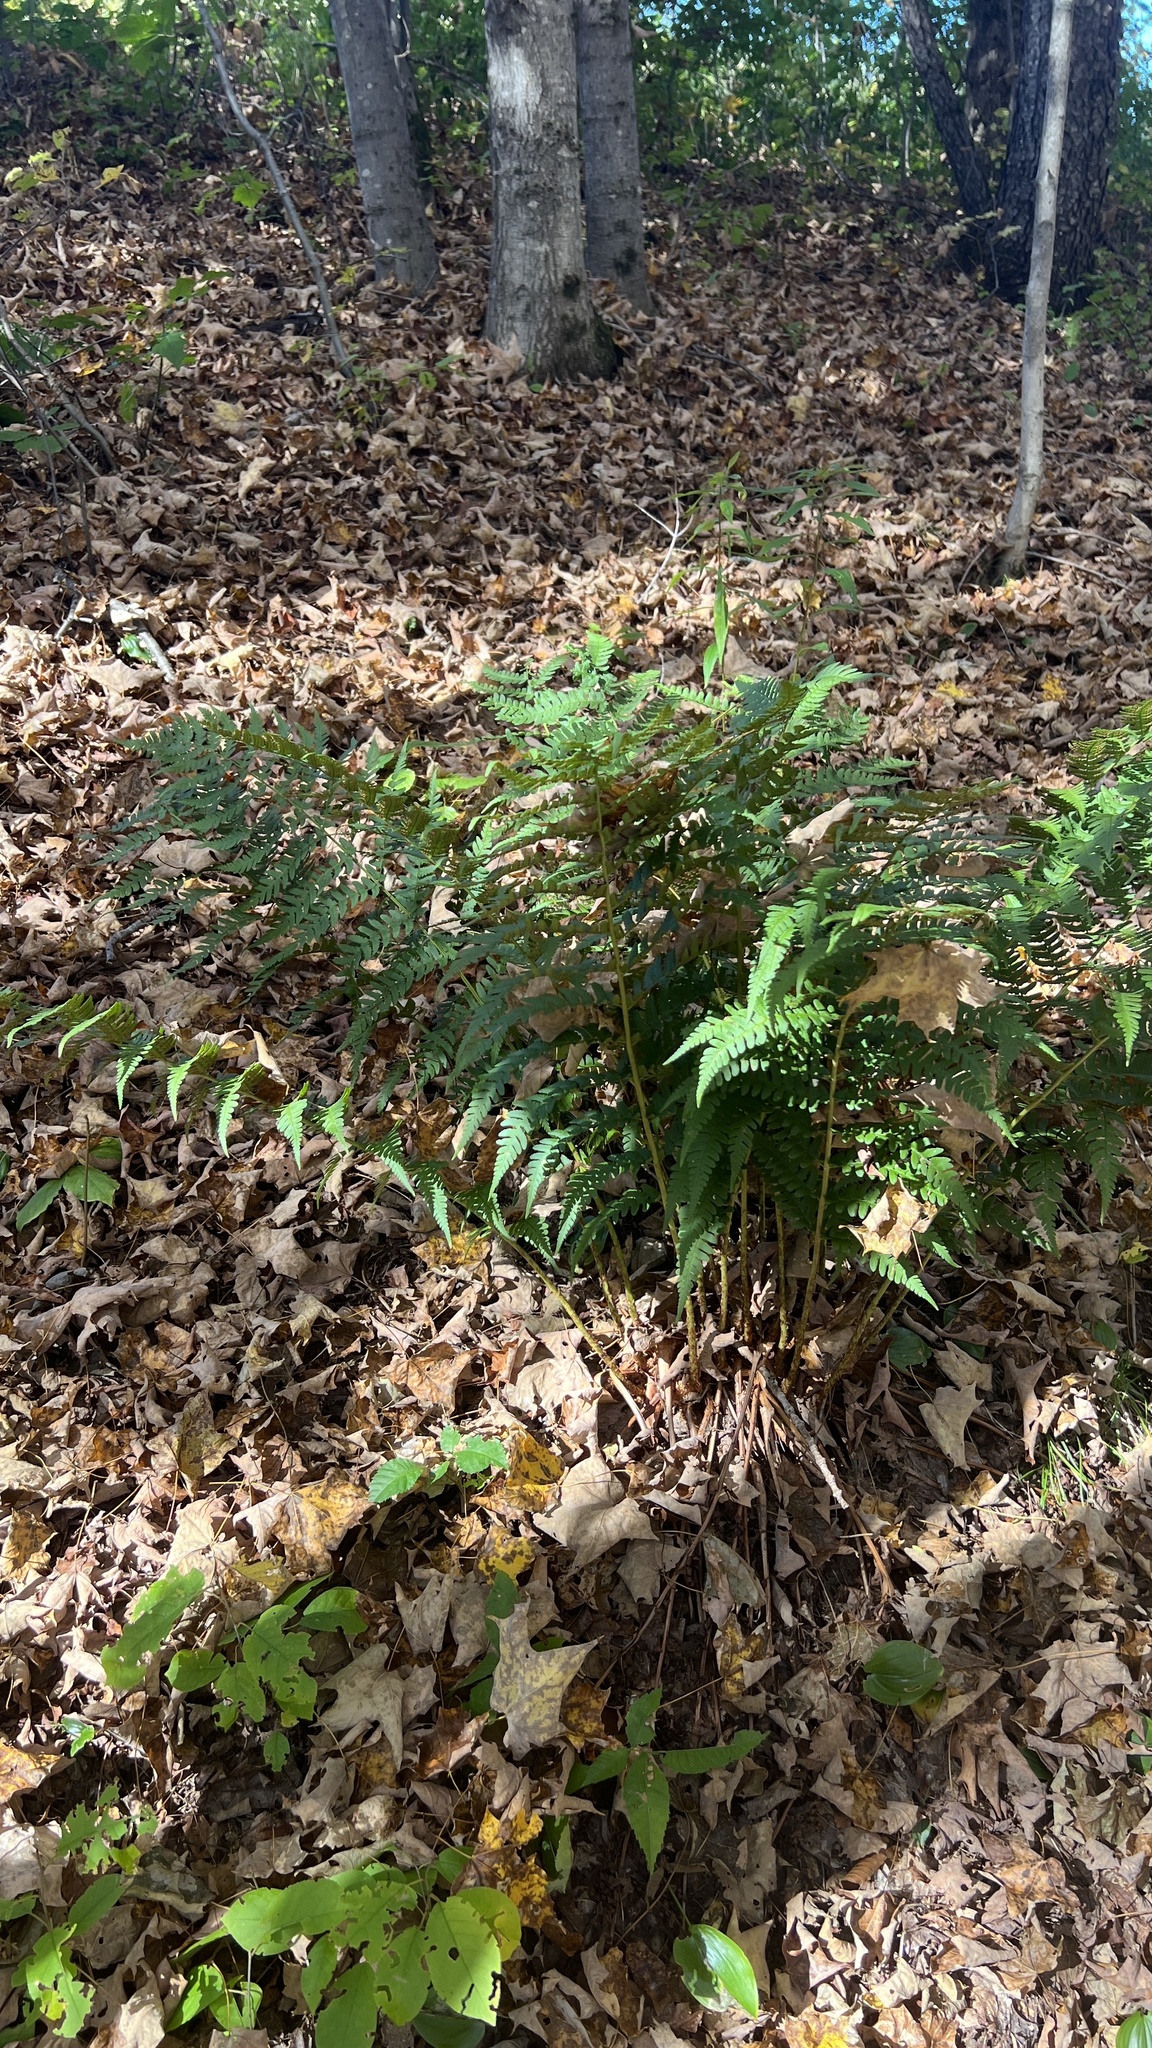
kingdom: Plantae
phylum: Tracheophyta
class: Polypodiopsida
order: Polypodiales
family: Dryopteridaceae
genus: Dryopteris
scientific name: Dryopteris marginalis
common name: Marginal wood fern
